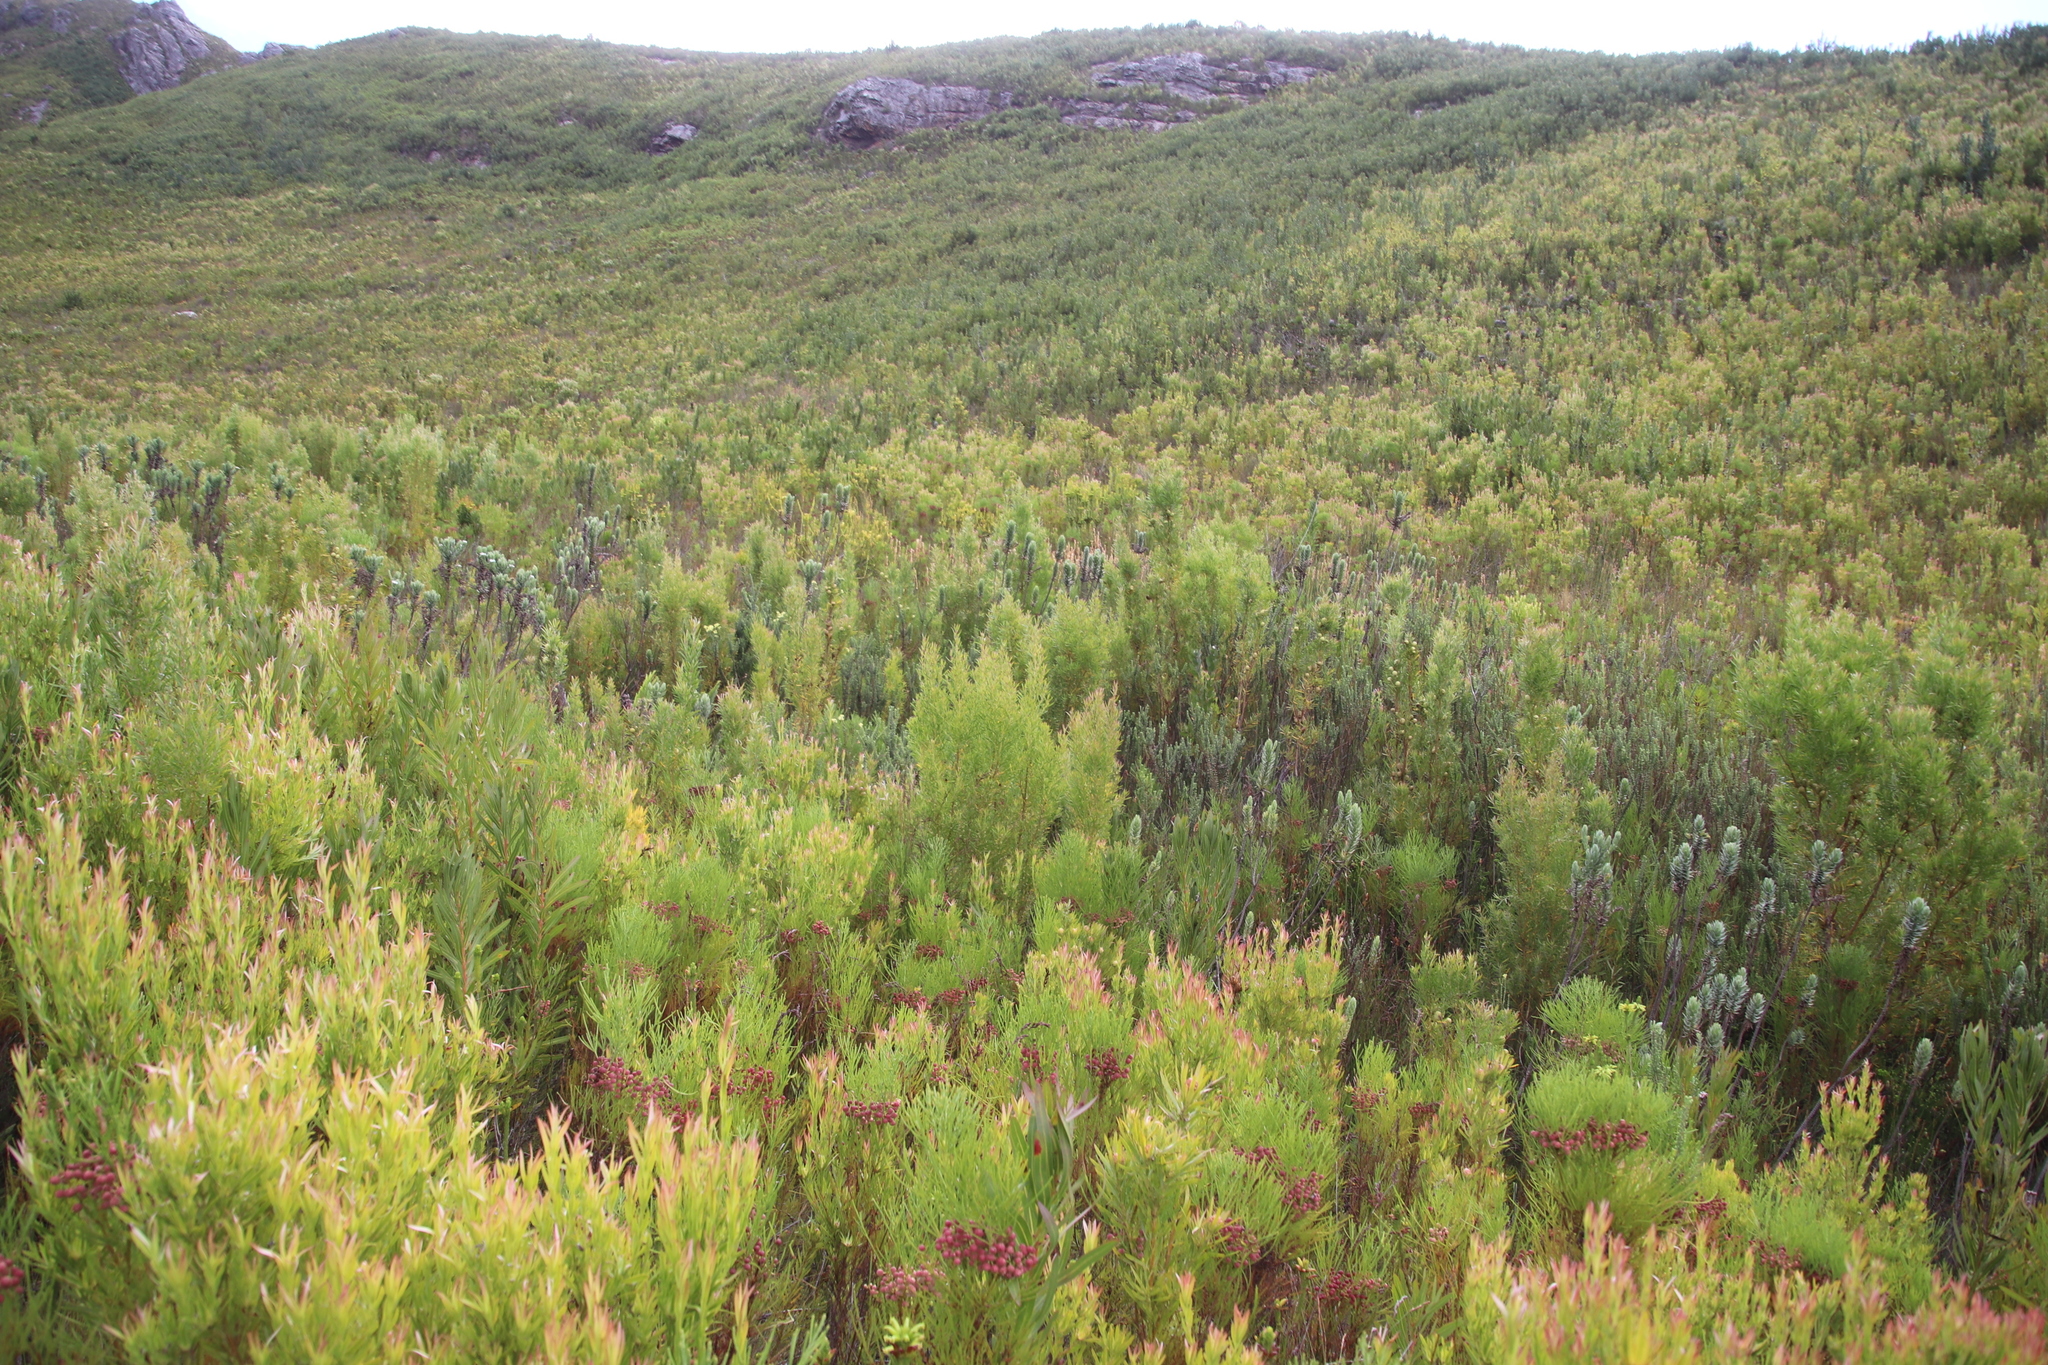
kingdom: Plantae
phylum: Tracheophyta
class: Magnoliopsida
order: Proteales
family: Proteaceae
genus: Leucadendron
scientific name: Leucadendron salicifolium
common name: Common stream conebush
